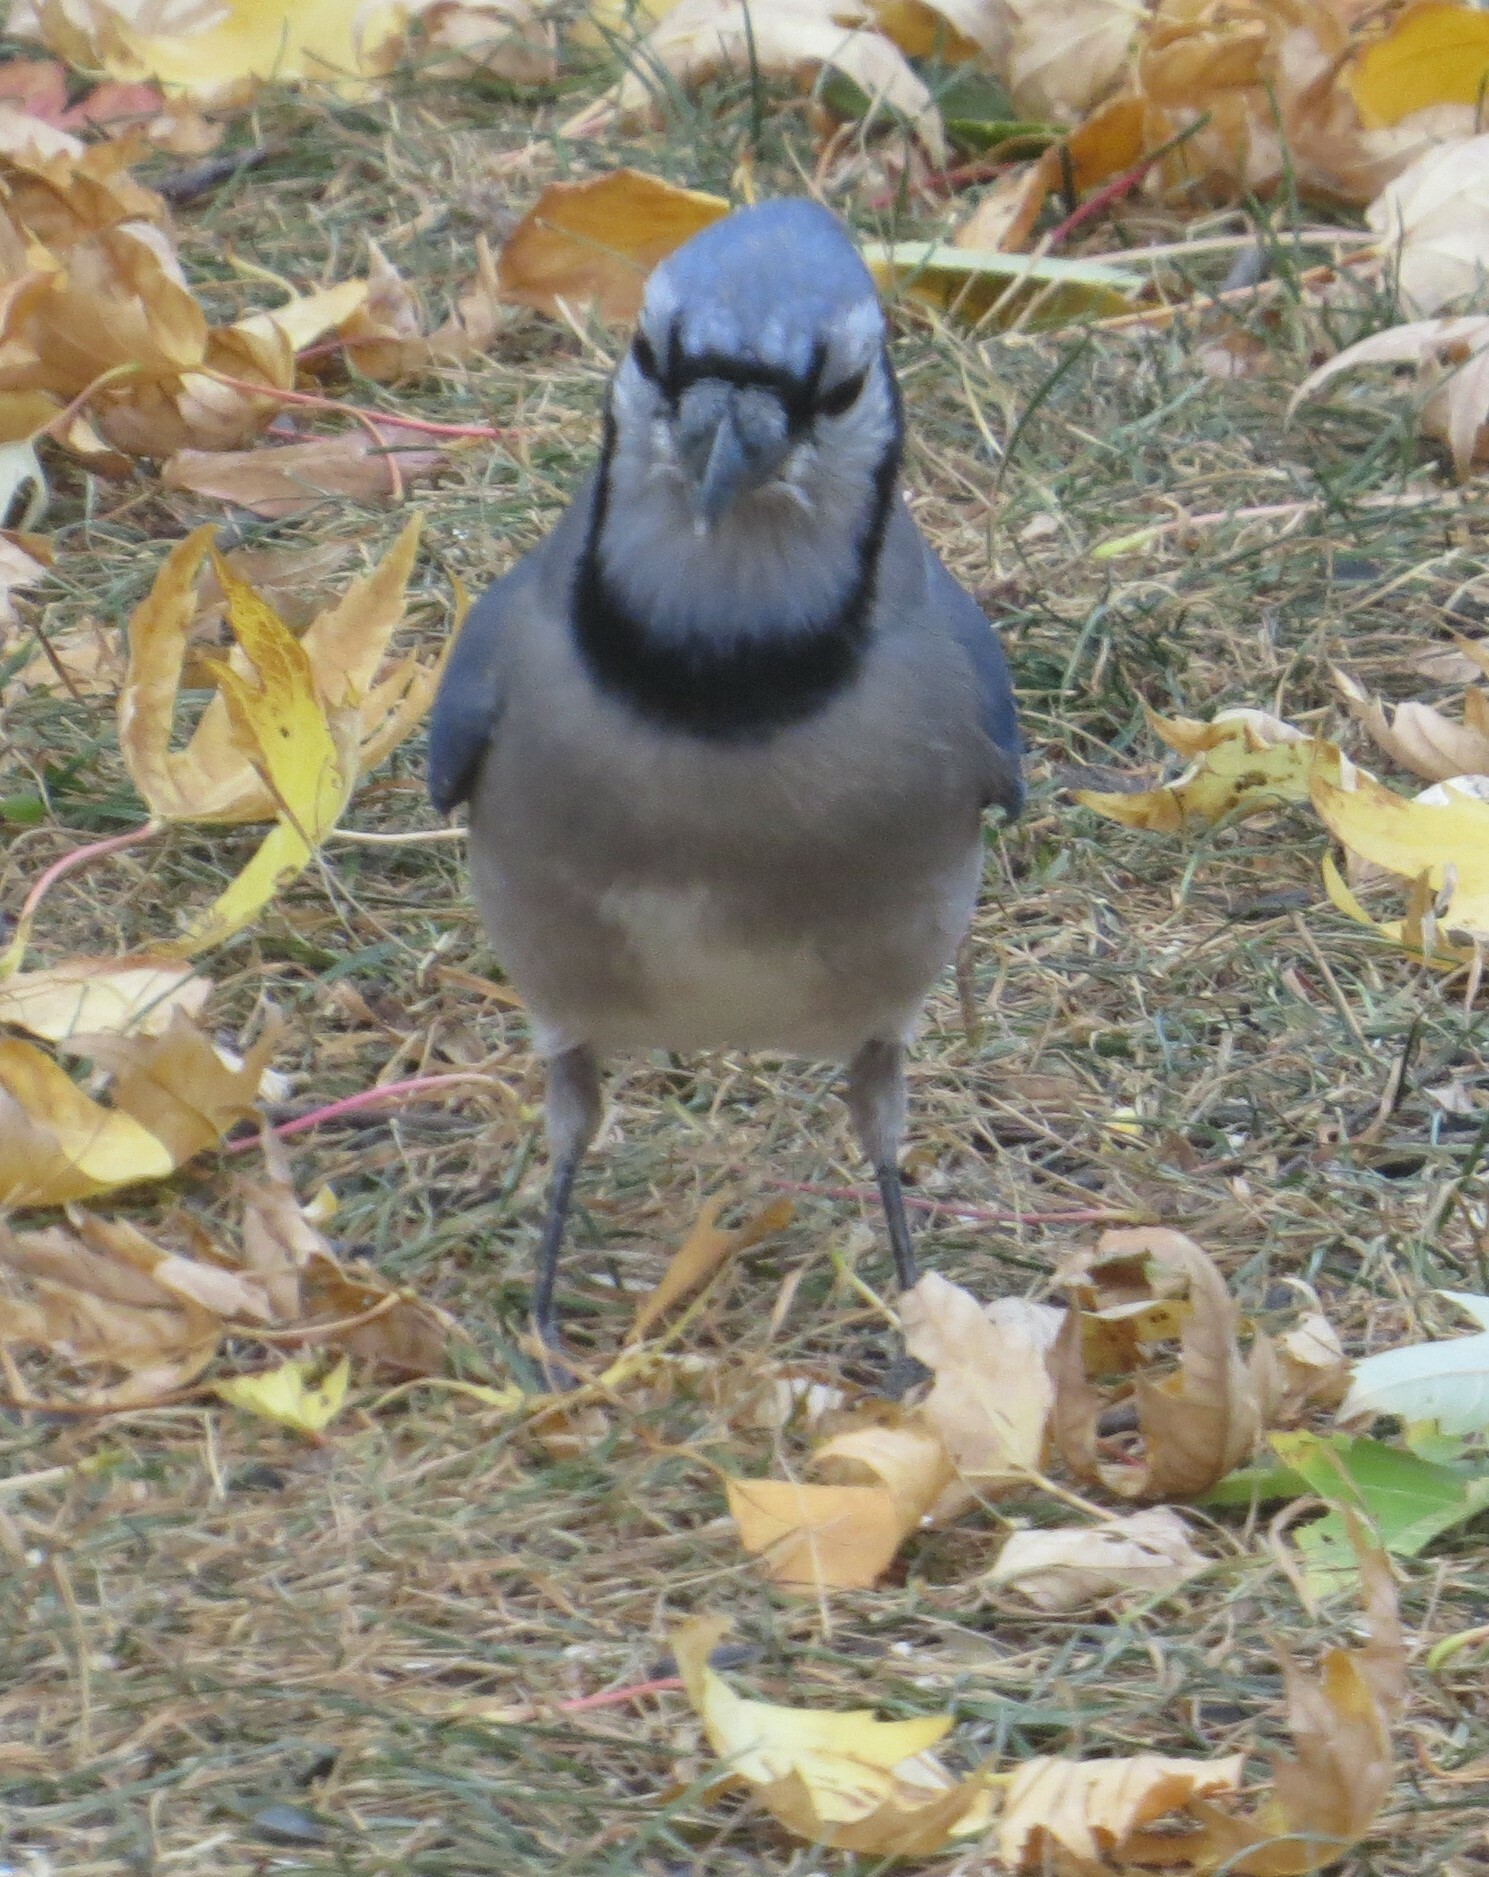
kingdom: Animalia
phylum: Chordata
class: Aves
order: Passeriformes
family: Corvidae
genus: Cyanocitta
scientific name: Cyanocitta cristata
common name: Blue jay
